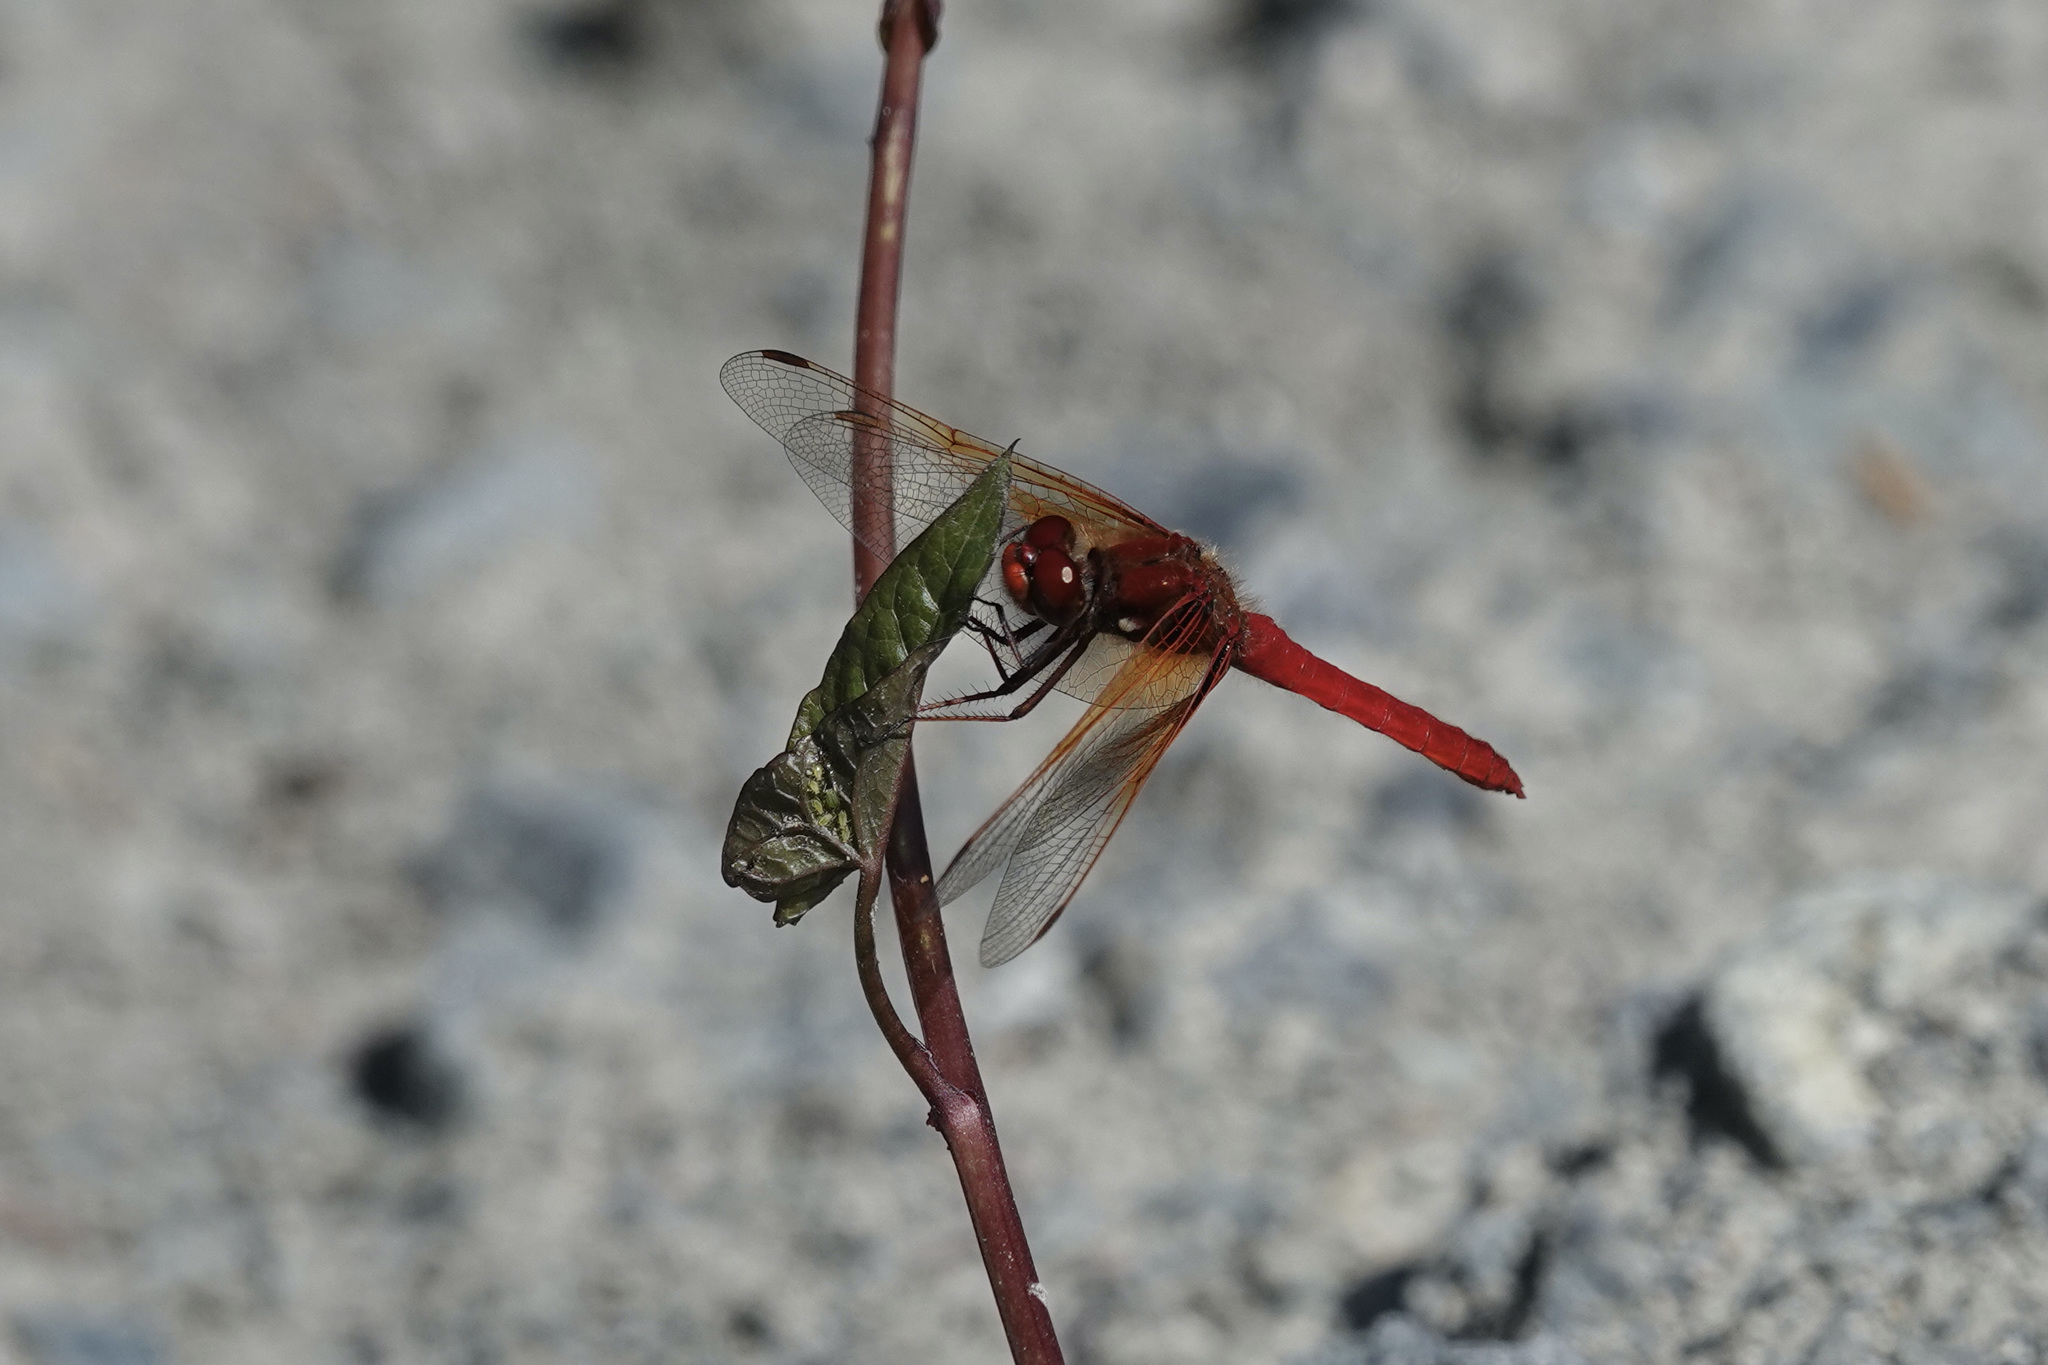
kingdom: Animalia
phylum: Arthropoda
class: Insecta
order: Odonata
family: Libellulidae
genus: Sympetrum
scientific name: Sympetrum illotum
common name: Cardinal meadowhawk
